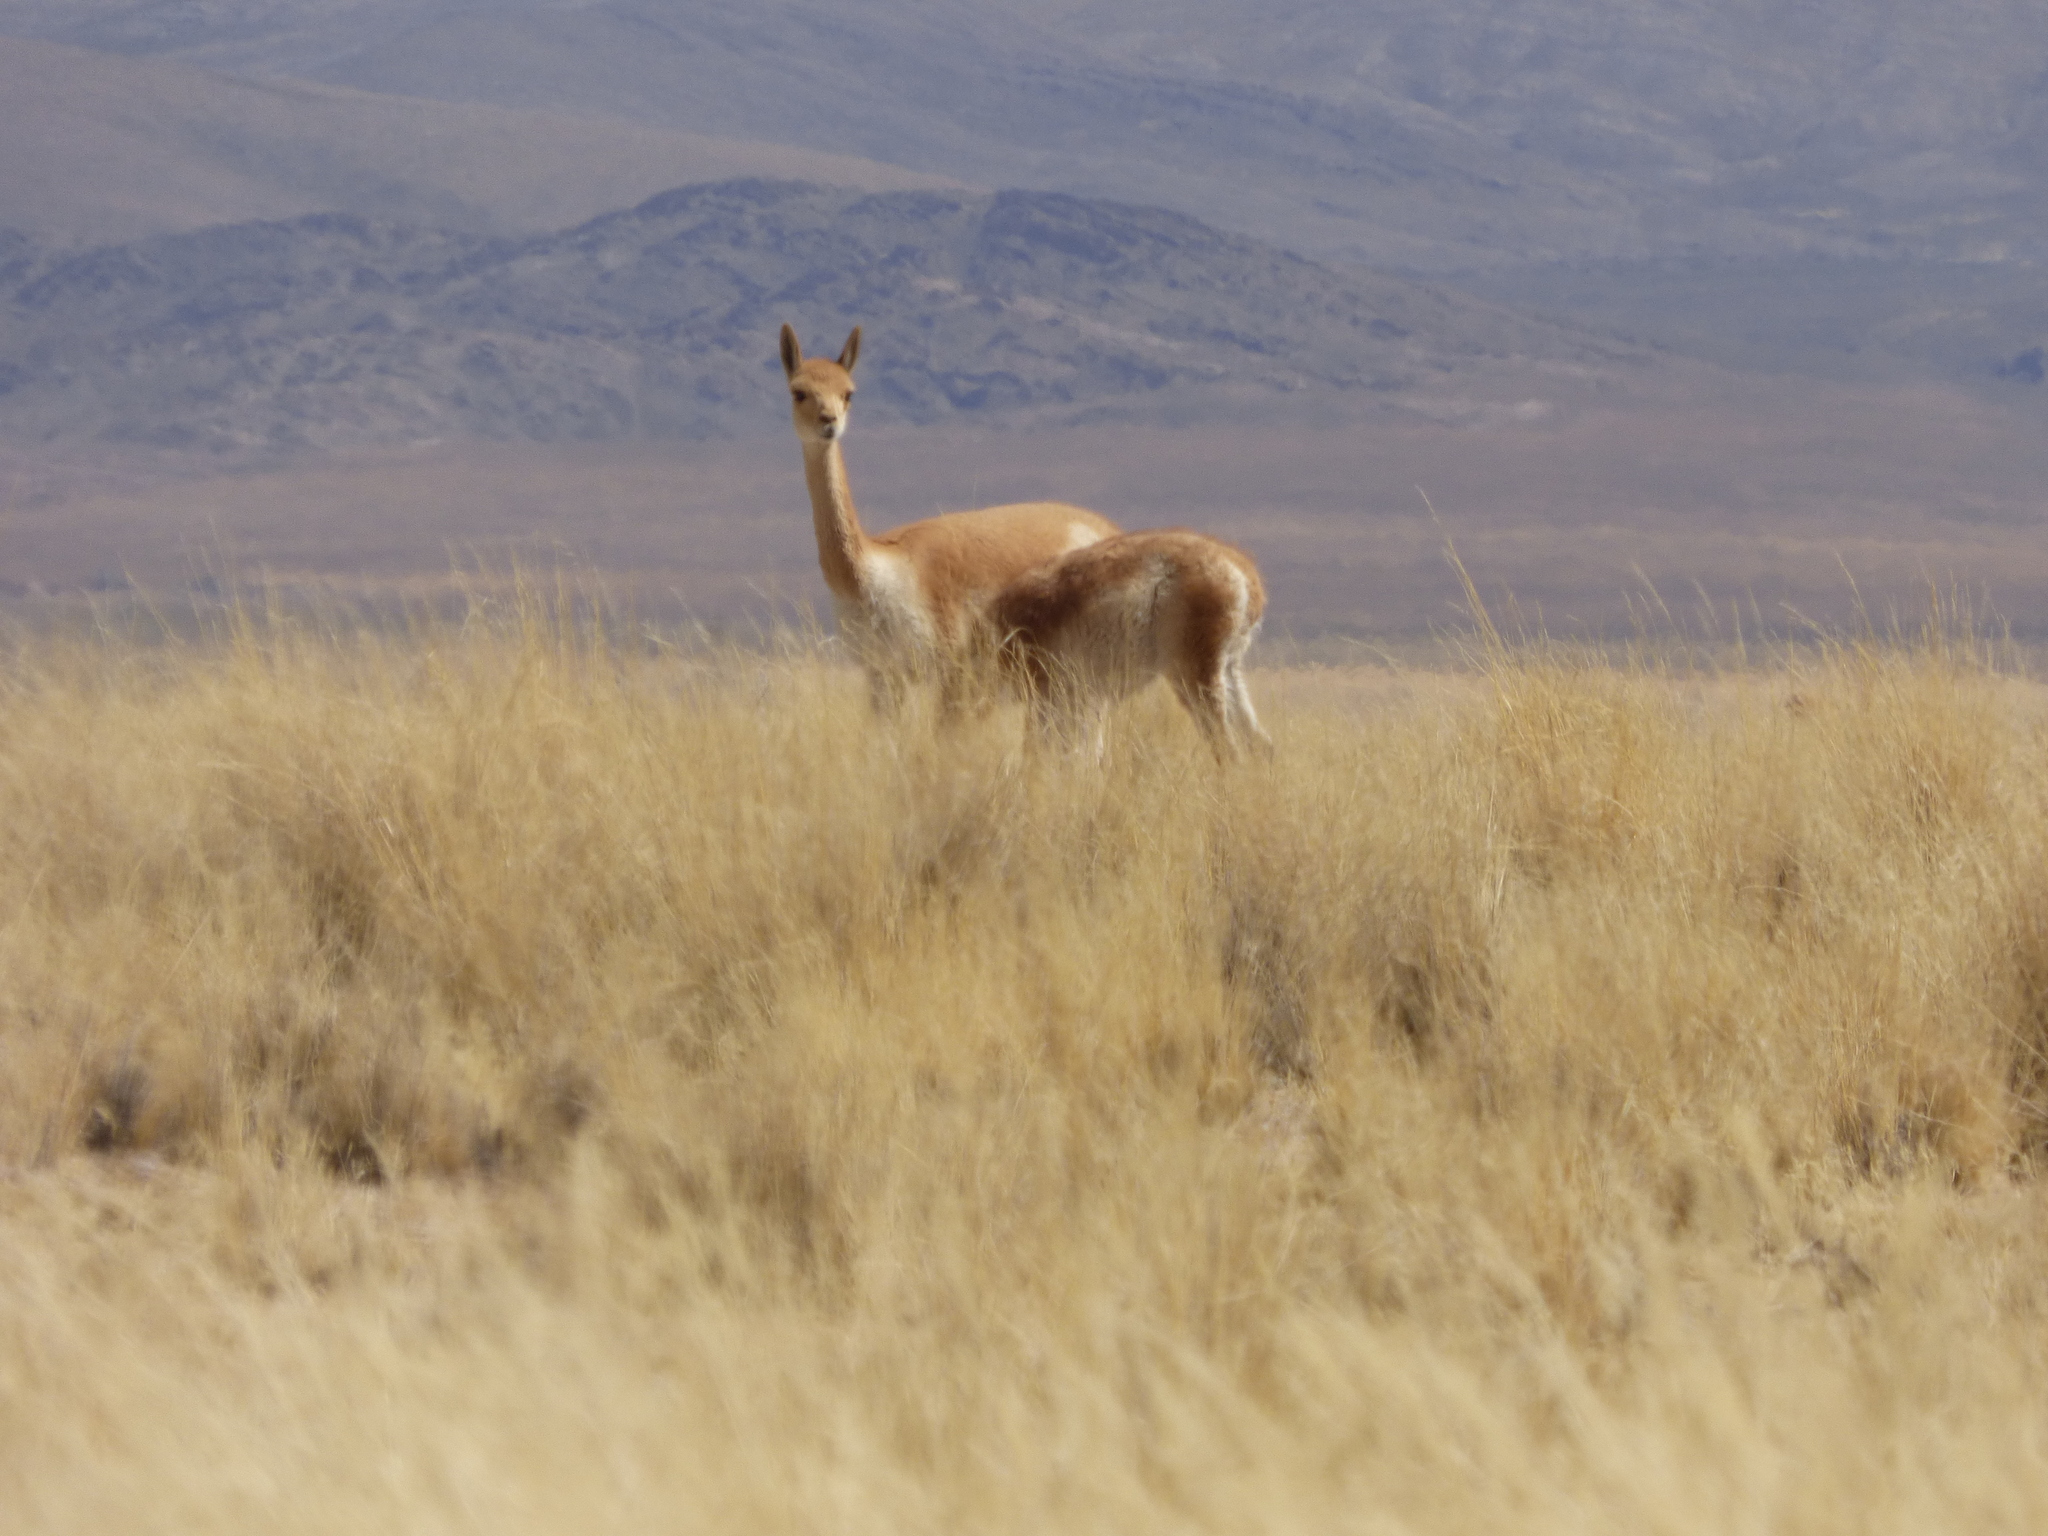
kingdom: Animalia
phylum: Chordata
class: Mammalia
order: Artiodactyla
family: Camelidae
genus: Vicugna
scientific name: Vicugna vicugna
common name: Vicugna
